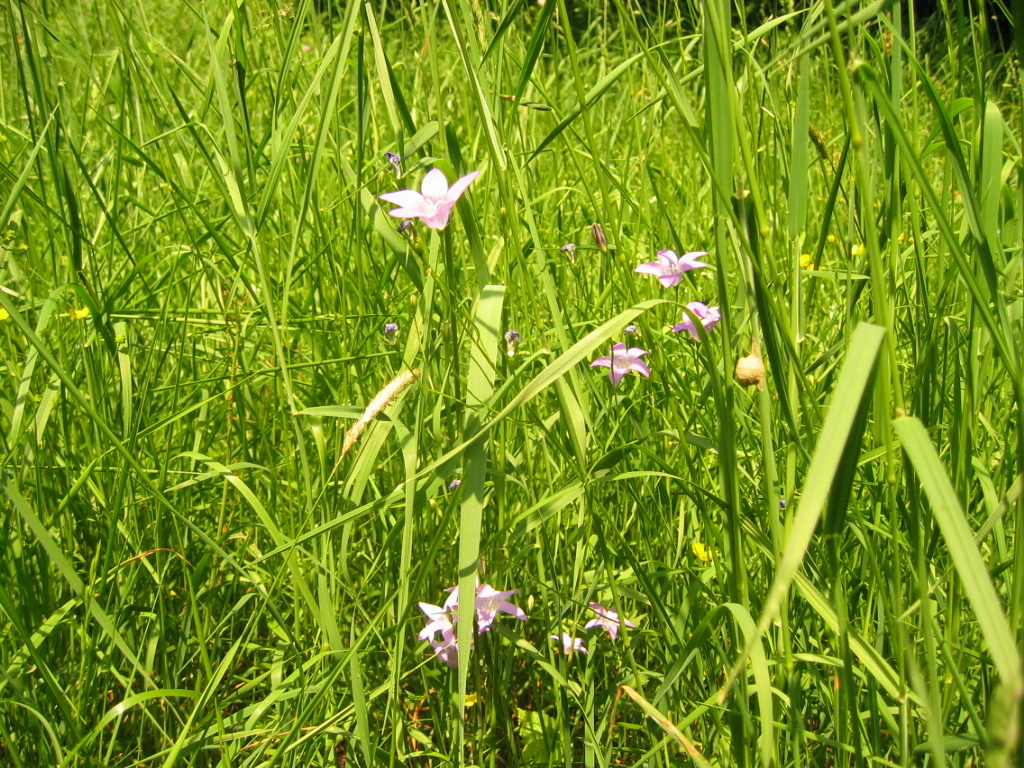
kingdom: Plantae
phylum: Tracheophyta
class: Magnoliopsida
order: Asterales
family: Campanulaceae
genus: Campanula
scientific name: Campanula patula
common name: Spreading bellflower
